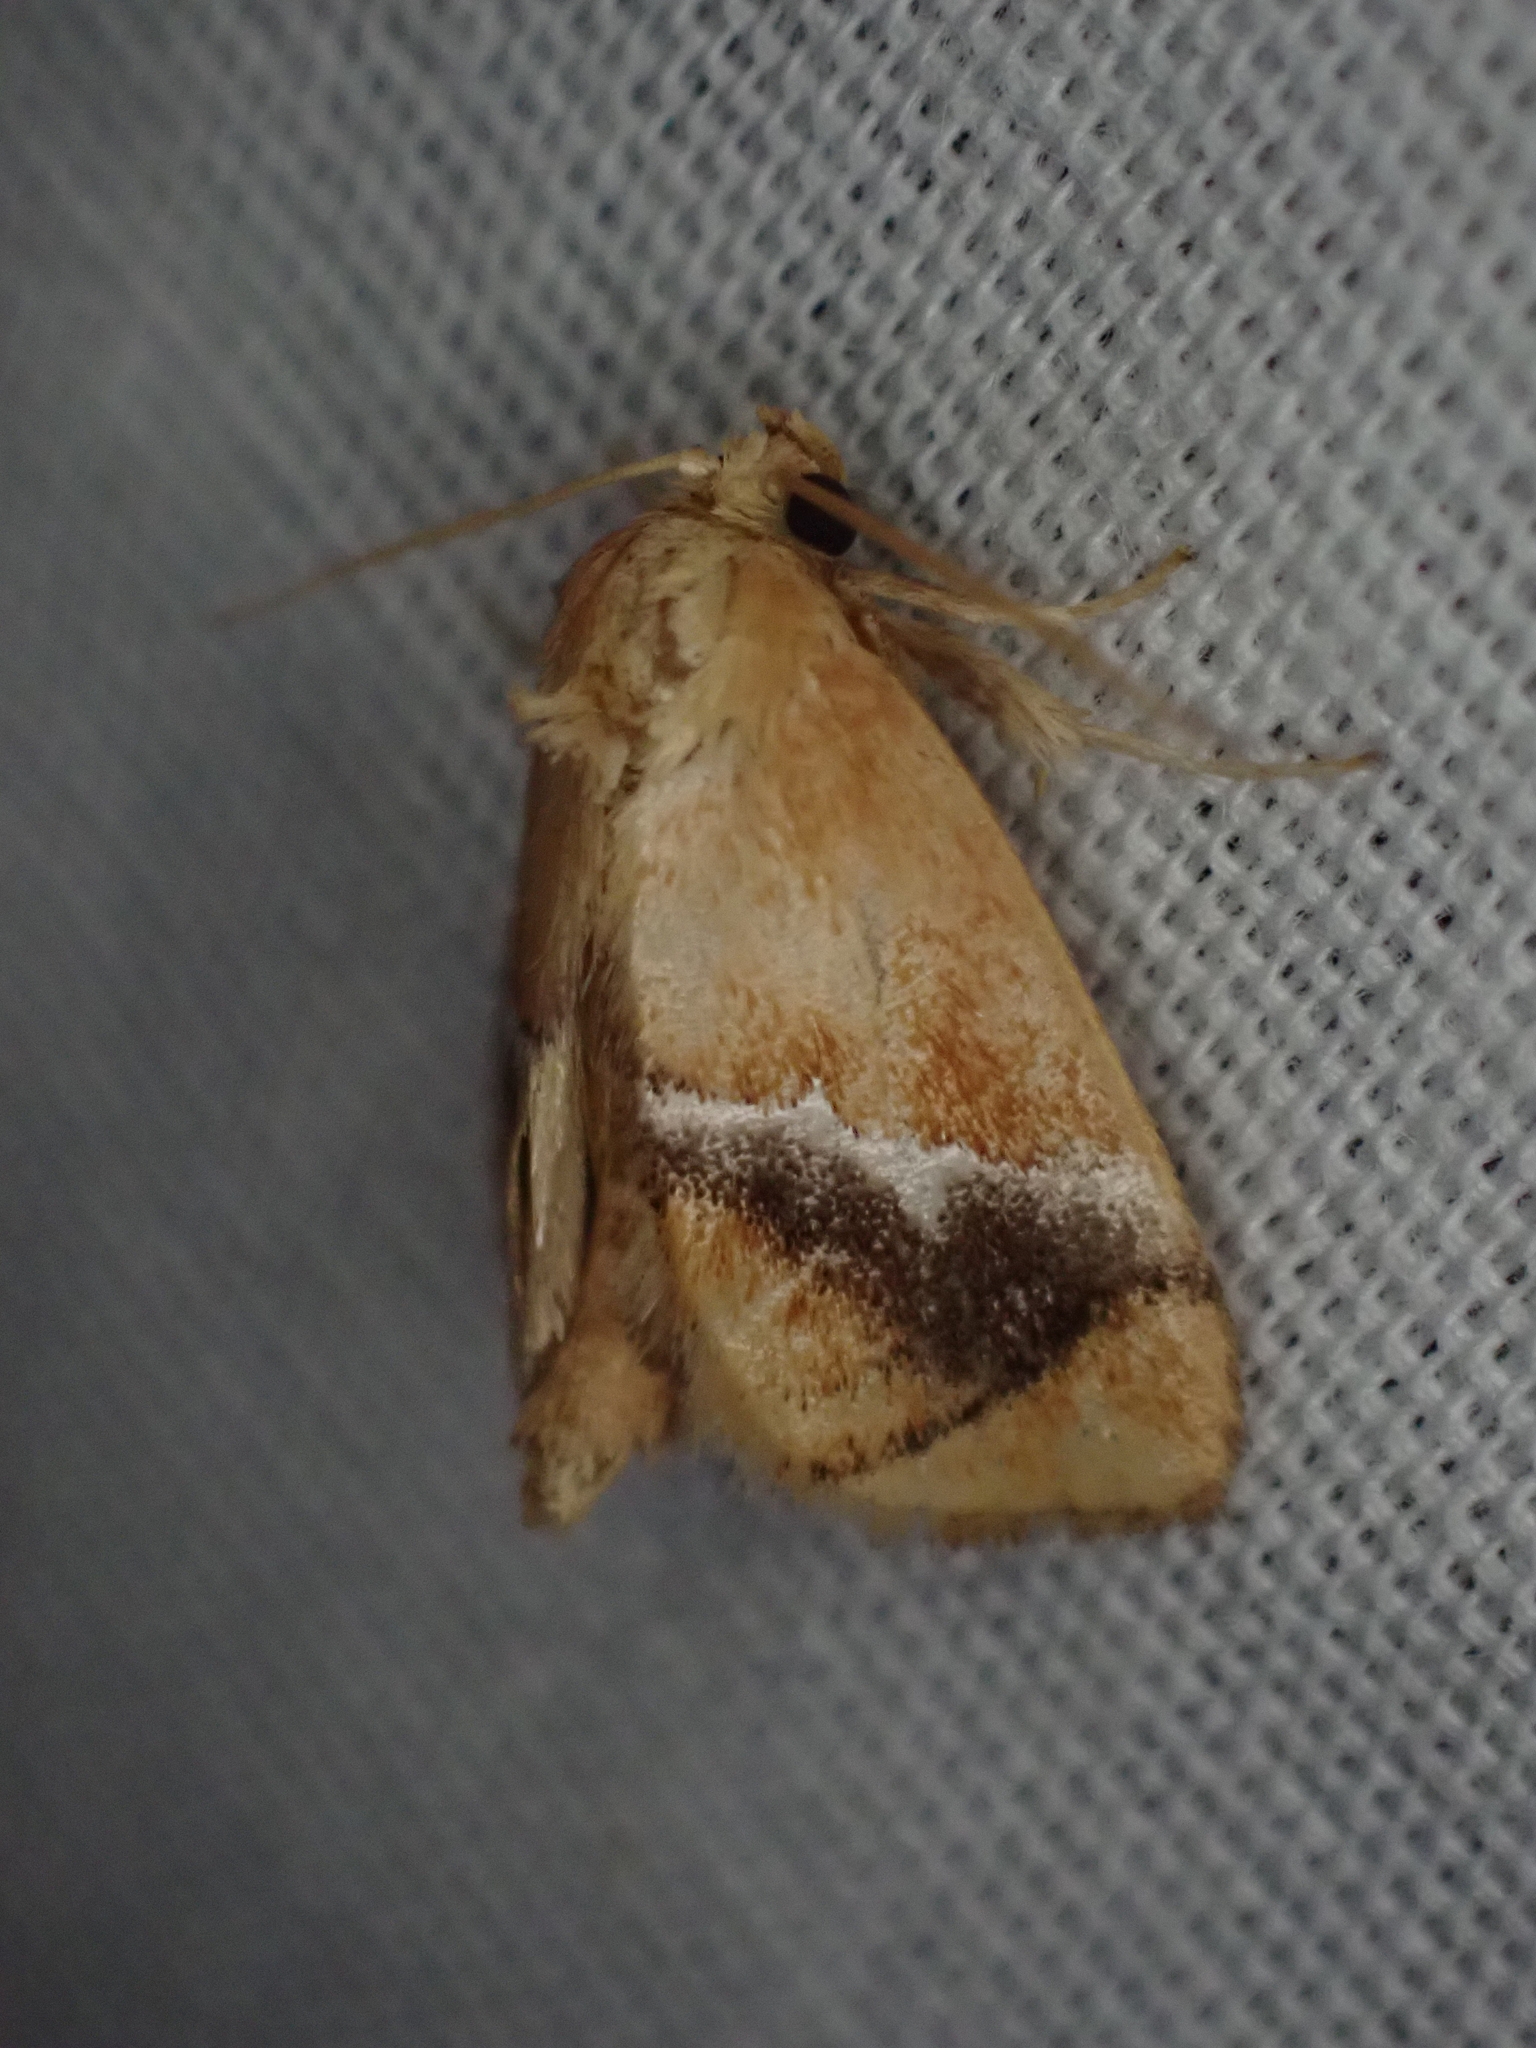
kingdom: Animalia
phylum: Arthropoda
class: Insecta
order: Lepidoptera
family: Limacodidae
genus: Lithacodes
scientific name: Lithacodes fasciola
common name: Yellow-shouldered slug moth
